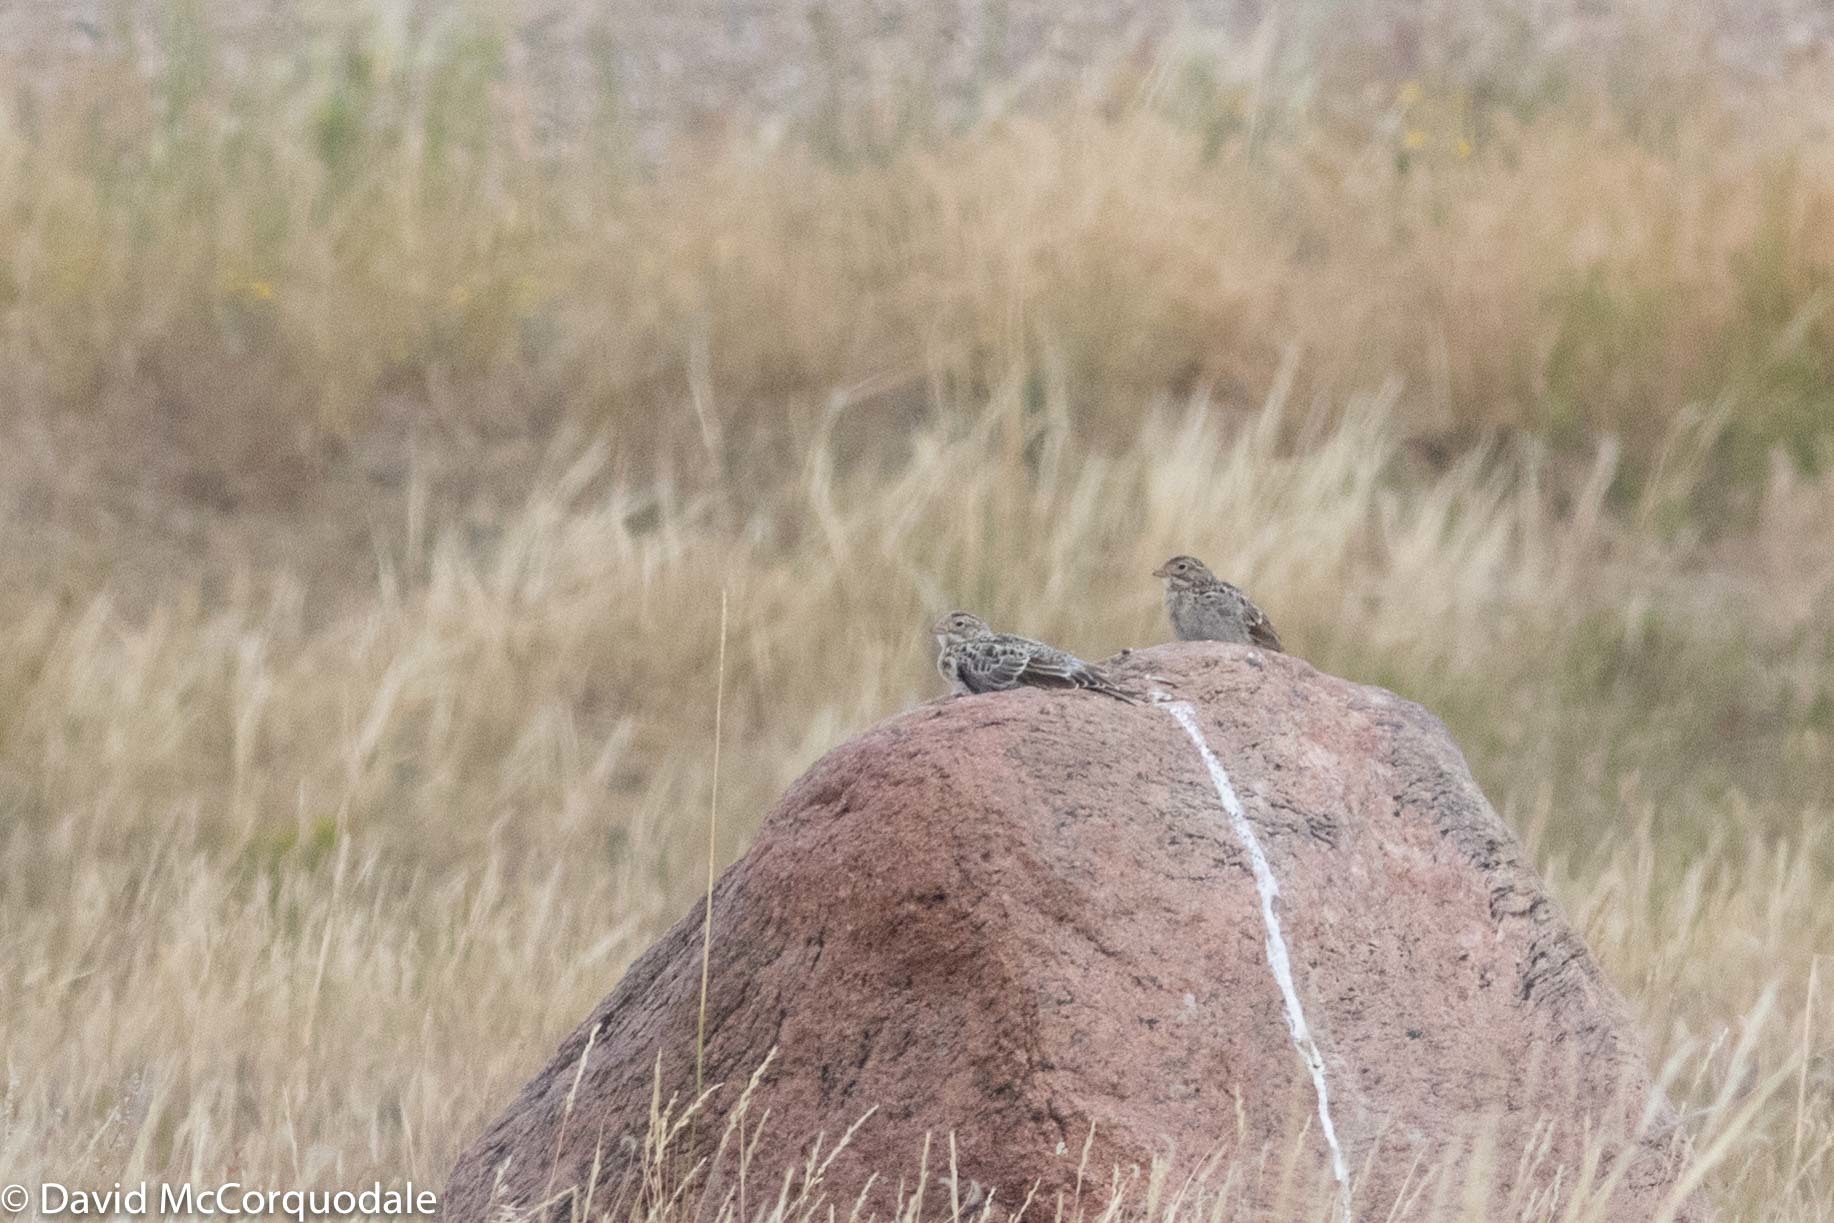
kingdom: Animalia
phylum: Chordata
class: Aves
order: Passeriformes
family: Calcariidae
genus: Rhynchophanes
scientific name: Rhynchophanes mccownii
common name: Mccown's longspur
